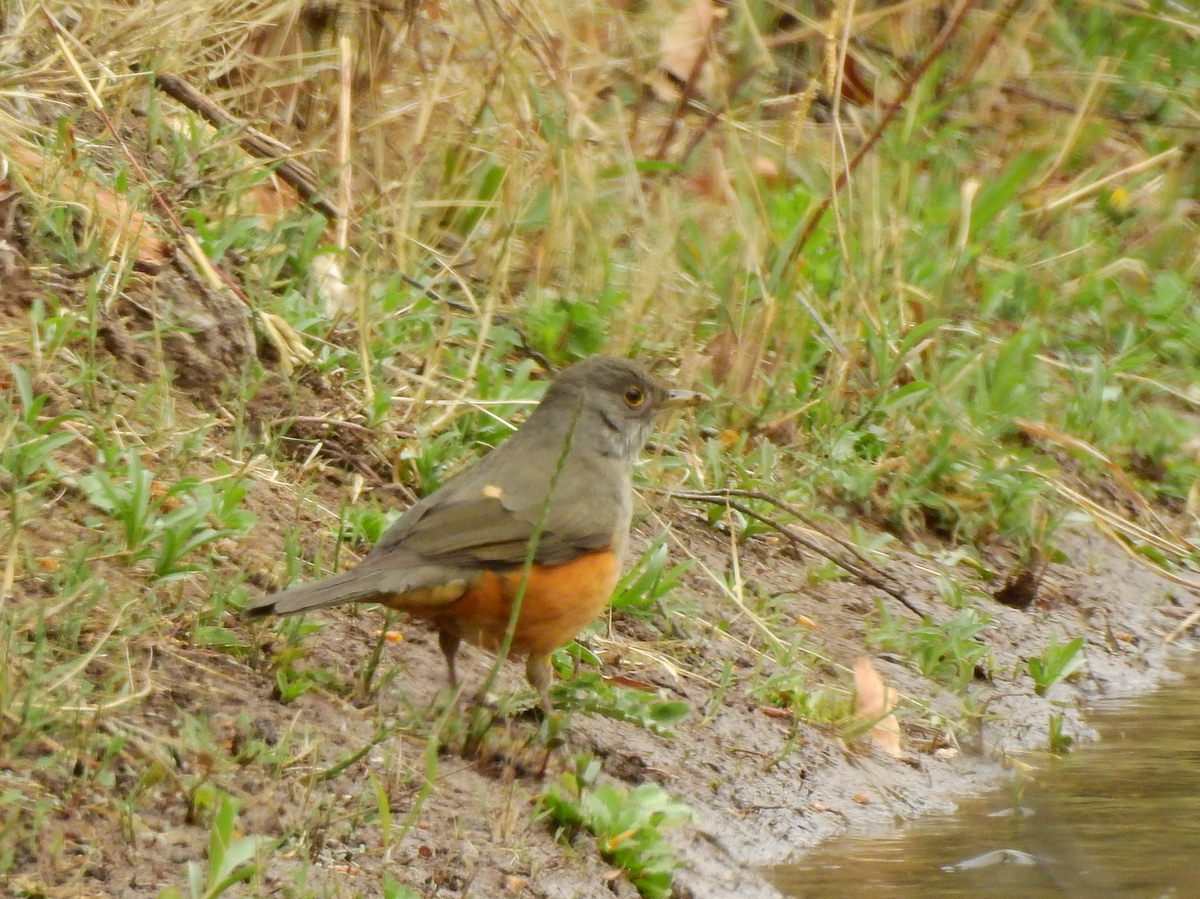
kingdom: Animalia
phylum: Chordata
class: Aves
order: Passeriformes
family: Turdidae
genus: Turdus
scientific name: Turdus rufiventris
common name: Rufous-bellied thrush
